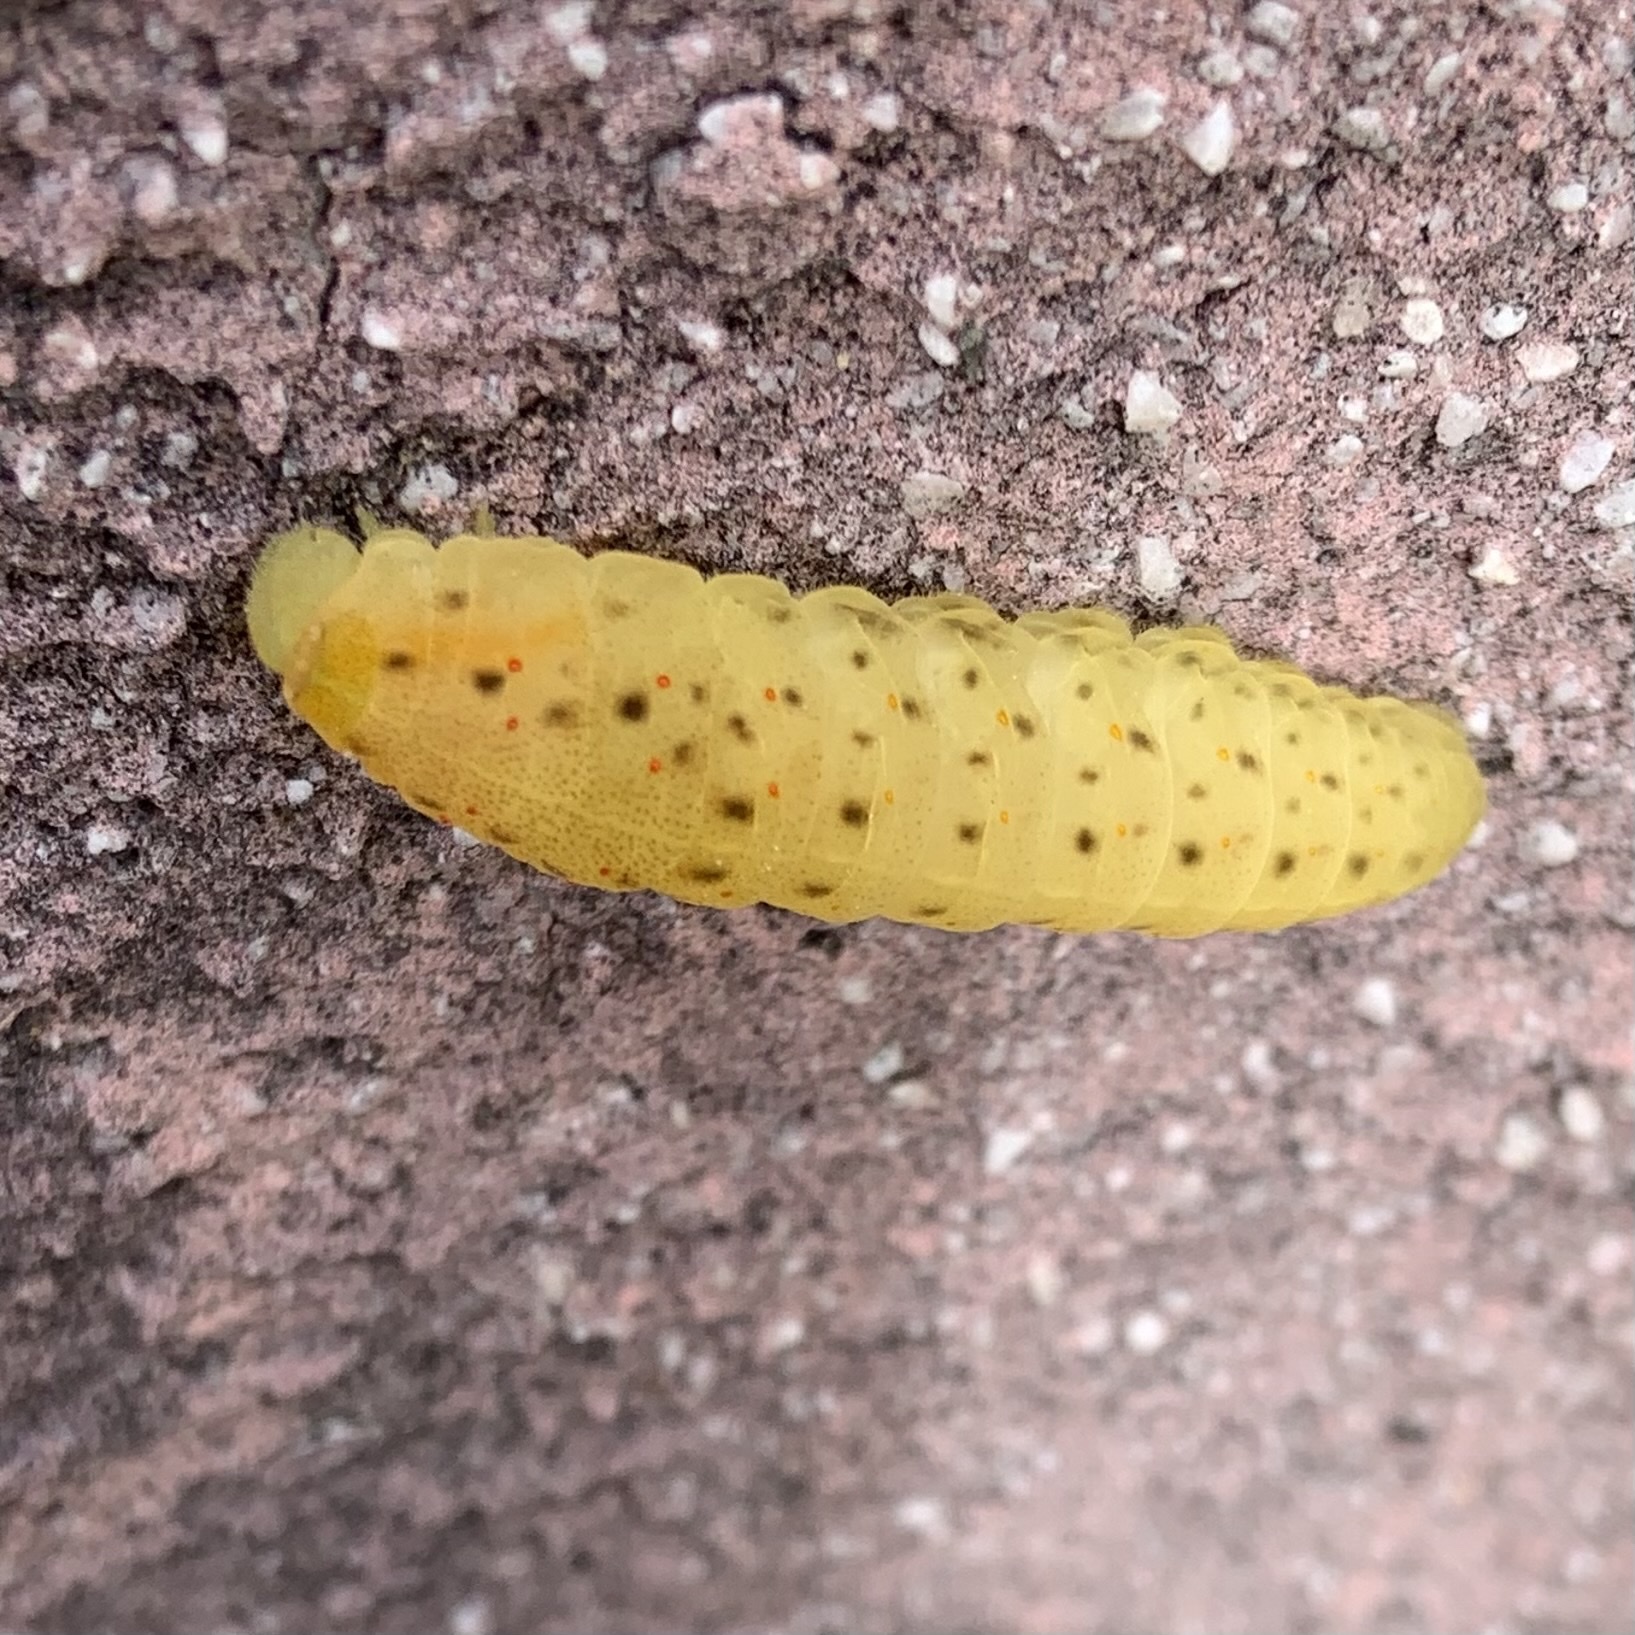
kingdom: Animalia
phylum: Arthropoda
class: Insecta
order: Lepidoptera
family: Papilionidae
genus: Iphiclides
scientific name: Iphiclides podalirius
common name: Scarce swallowtail
